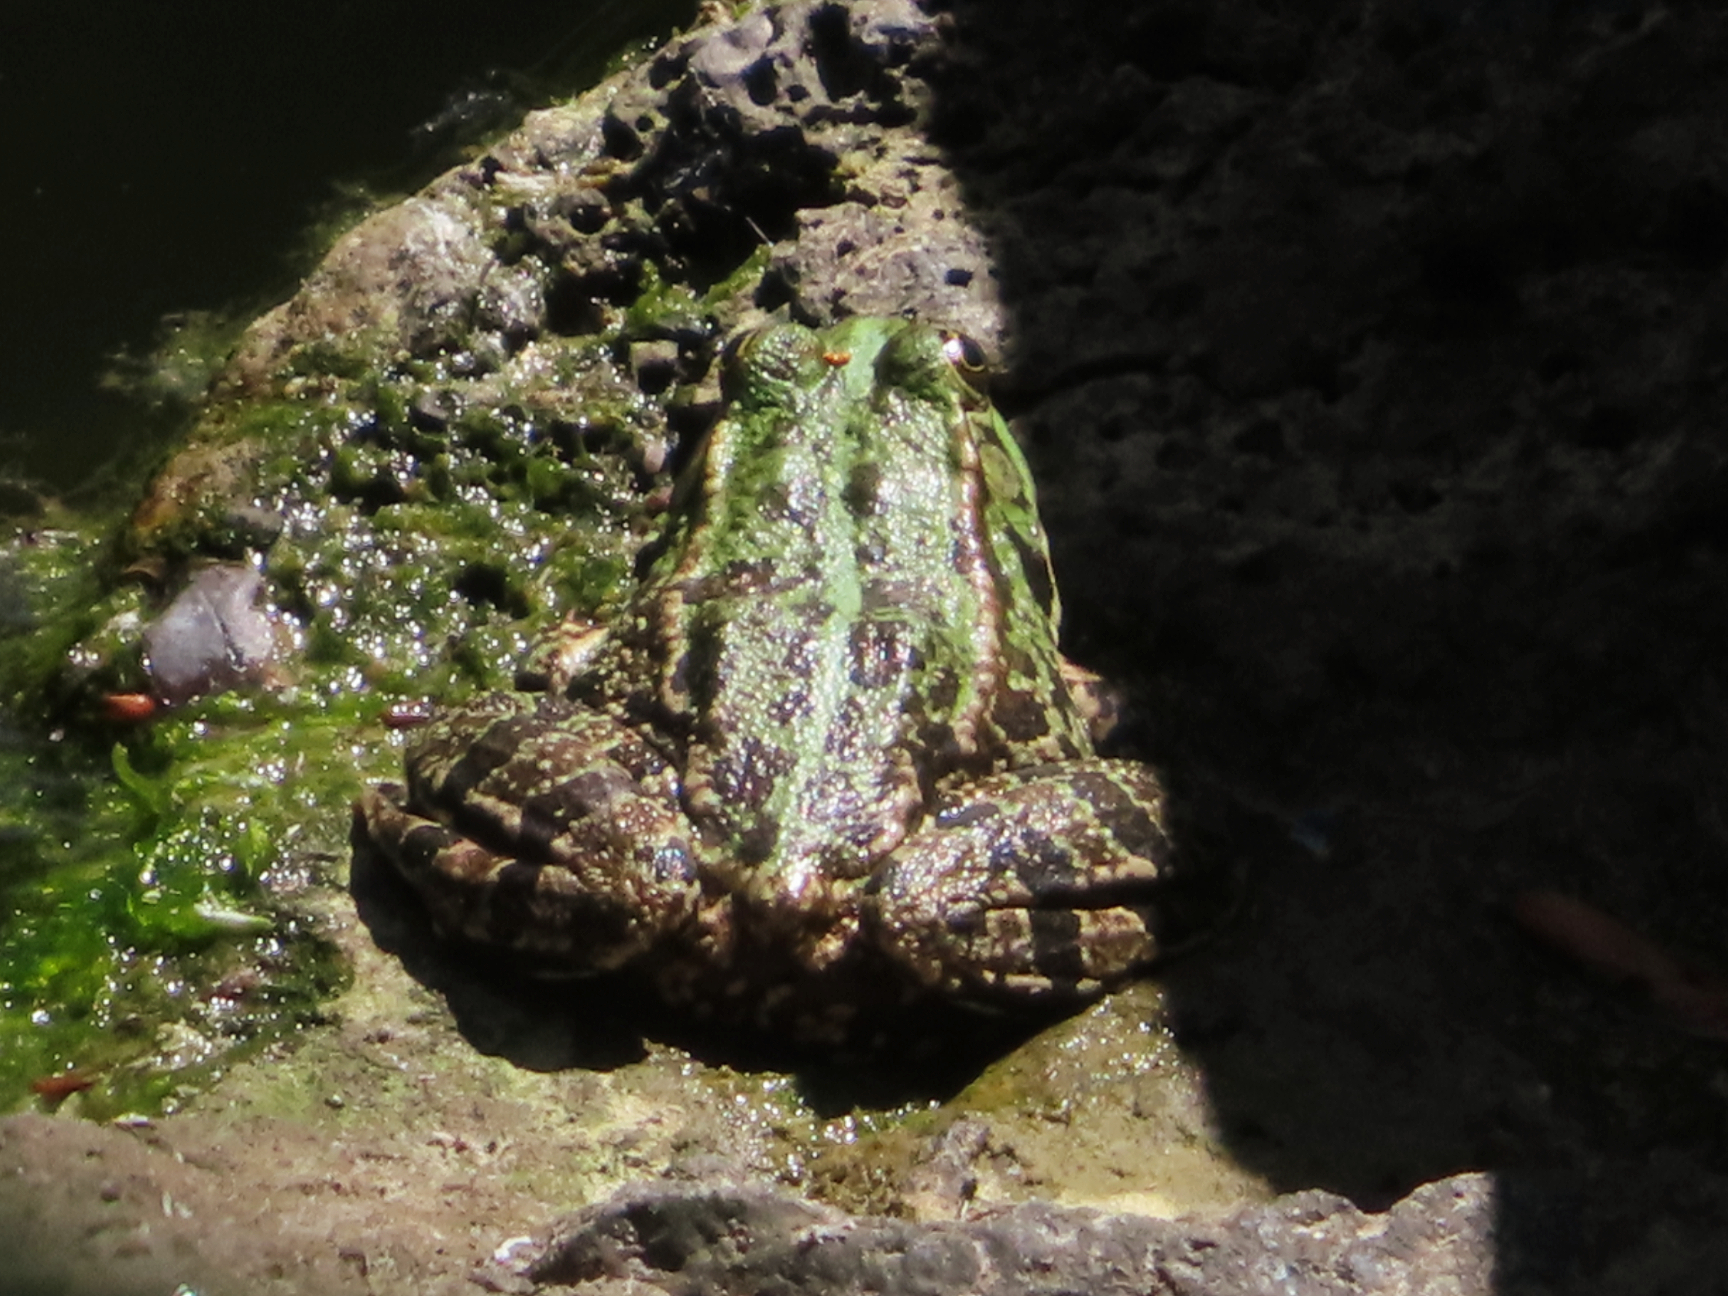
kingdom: Animalia
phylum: Chordata
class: Amphibia
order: Anura
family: Ranidae
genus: Pelophylax
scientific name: Pelophylax ridibundus
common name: Marsh frog
